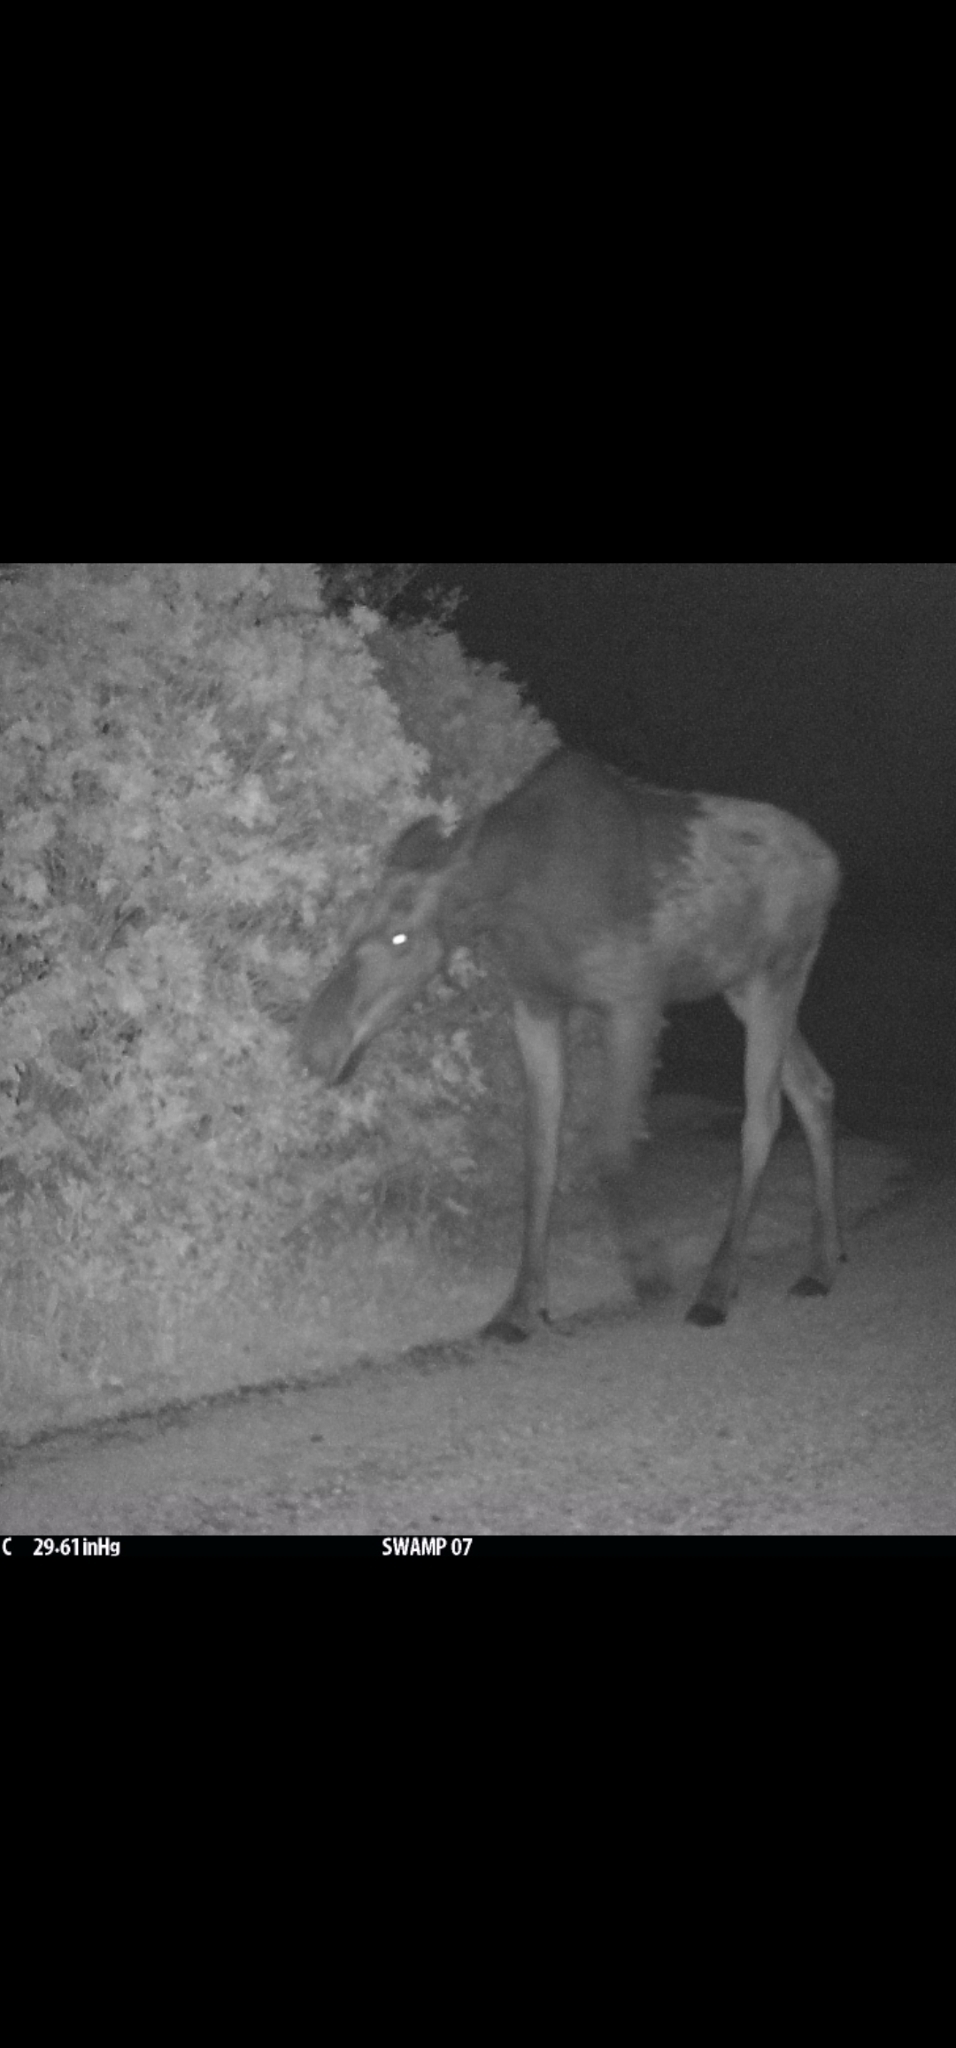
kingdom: Animalia
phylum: Chordata
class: Mammalia
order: Artiodactyla
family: Cervidae
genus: Alces
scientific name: Alces alces
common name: Moose
